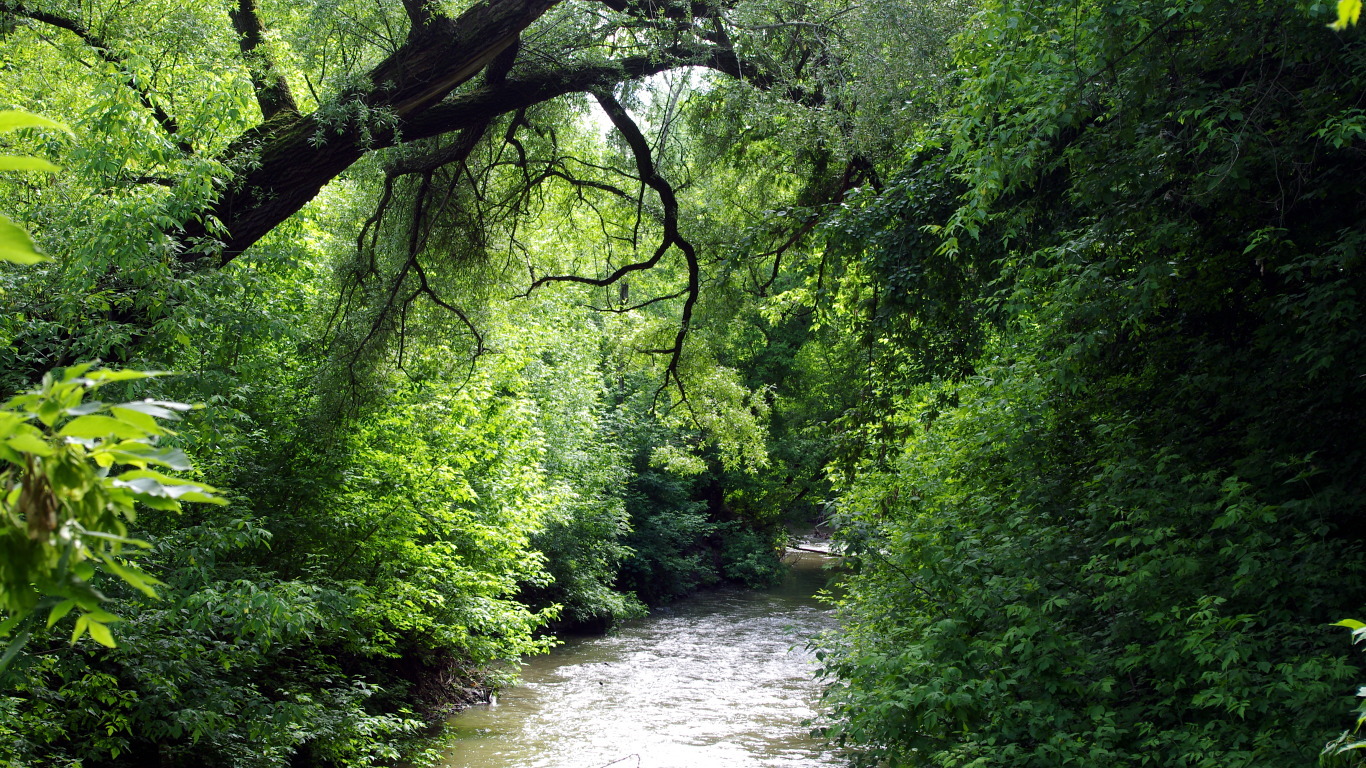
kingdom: Plantae
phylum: Tracheophyta
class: Magnoliopsida
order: Malpighiales
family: Salicaceae
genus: Salix
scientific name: Salix alba
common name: White willow
